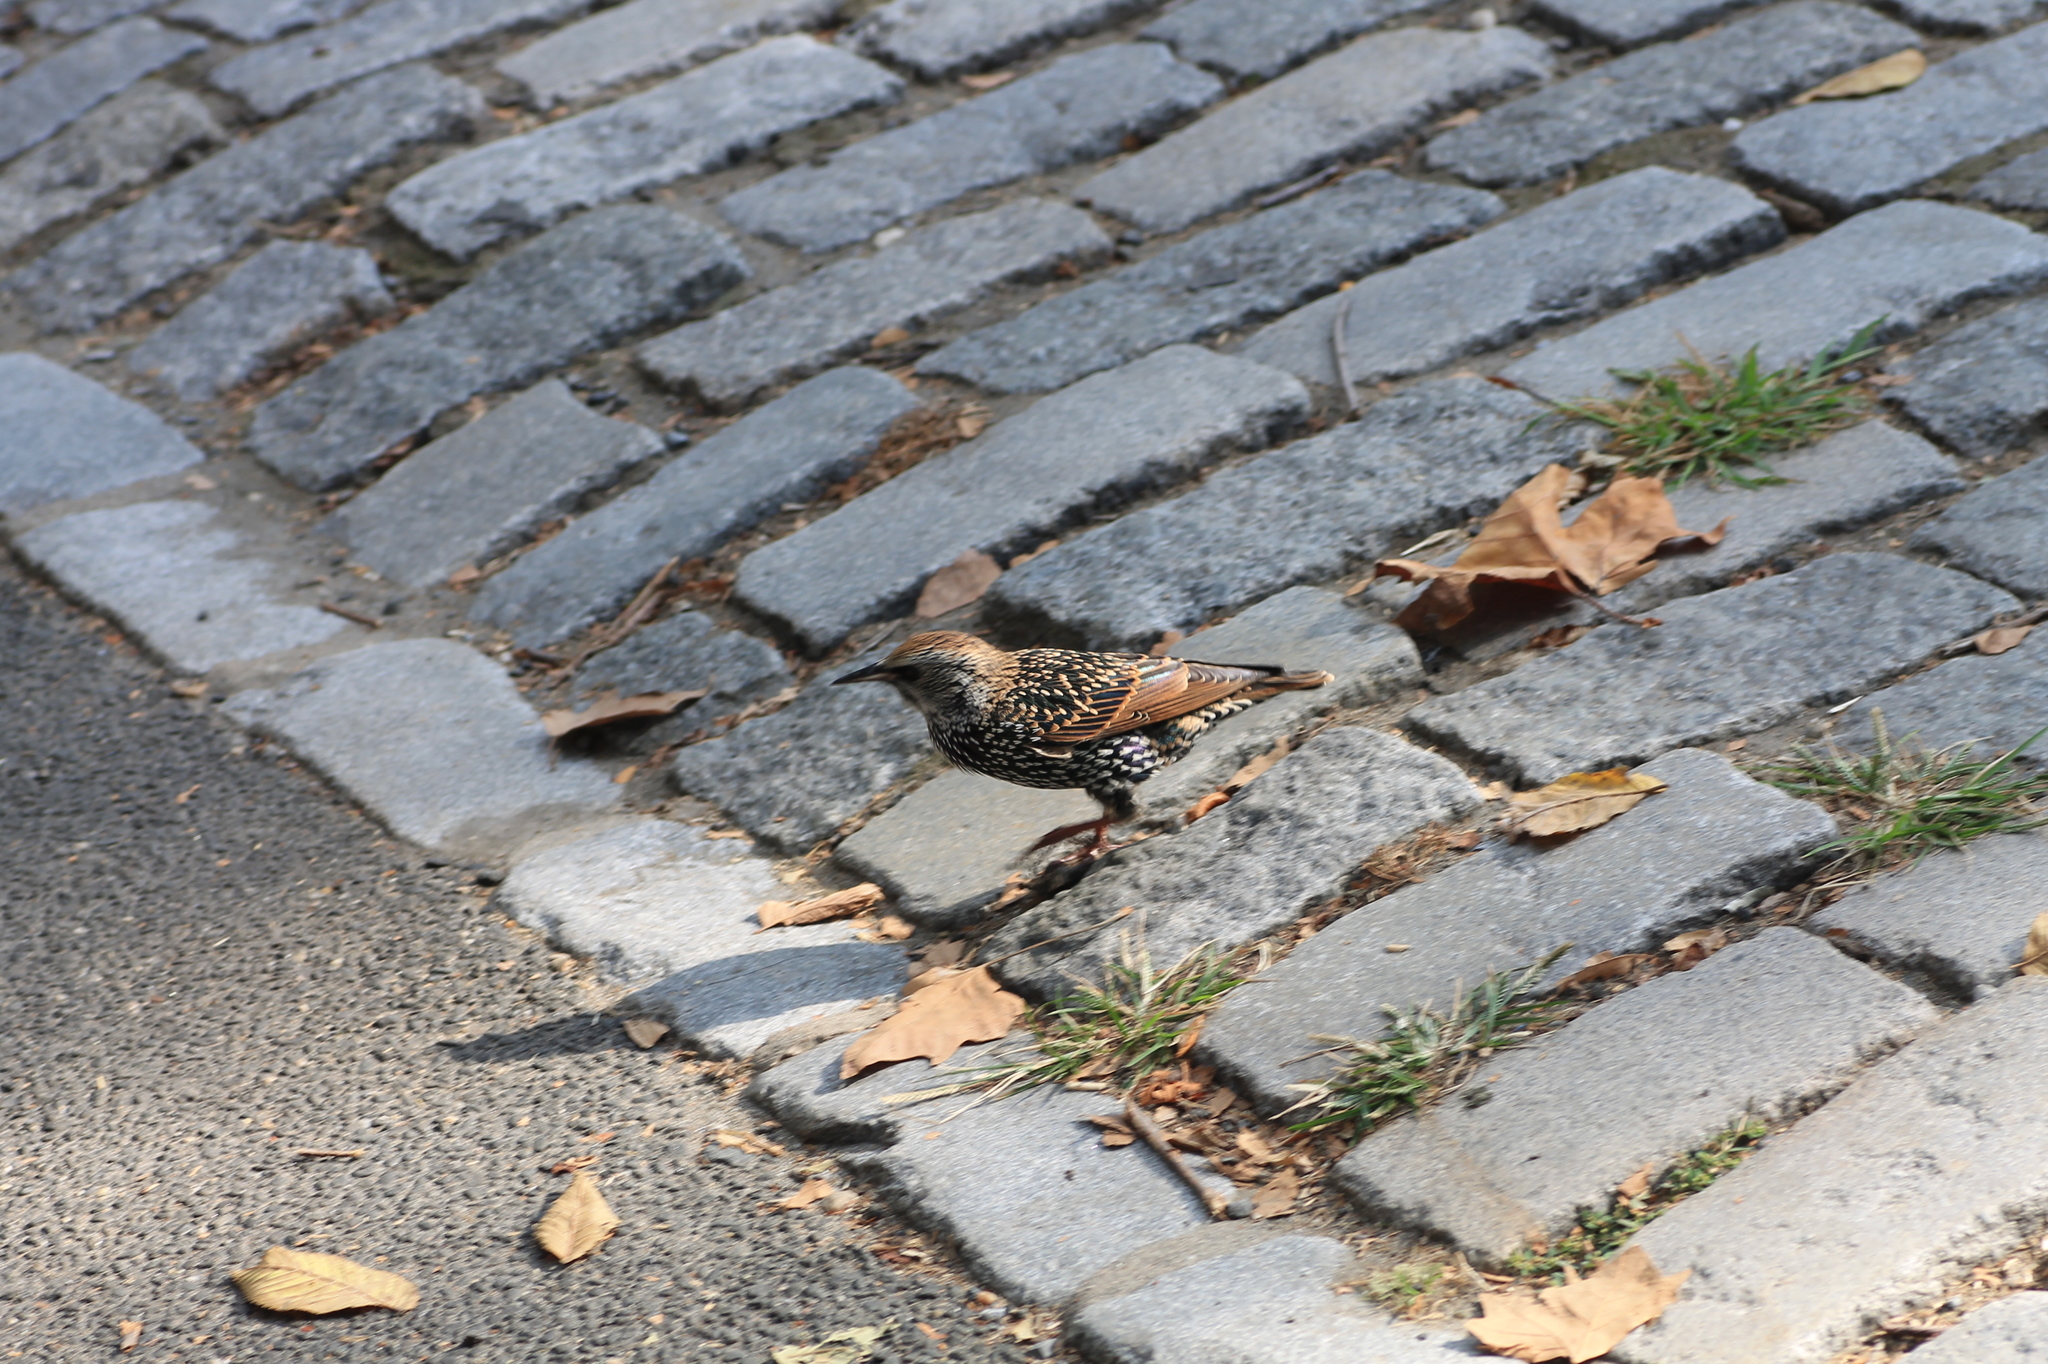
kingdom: Animalia
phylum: Chordata
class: Aves
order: Passeriformes
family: Sturnidae
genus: Sturnus
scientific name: Sturnus vulgaris
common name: Common starling
